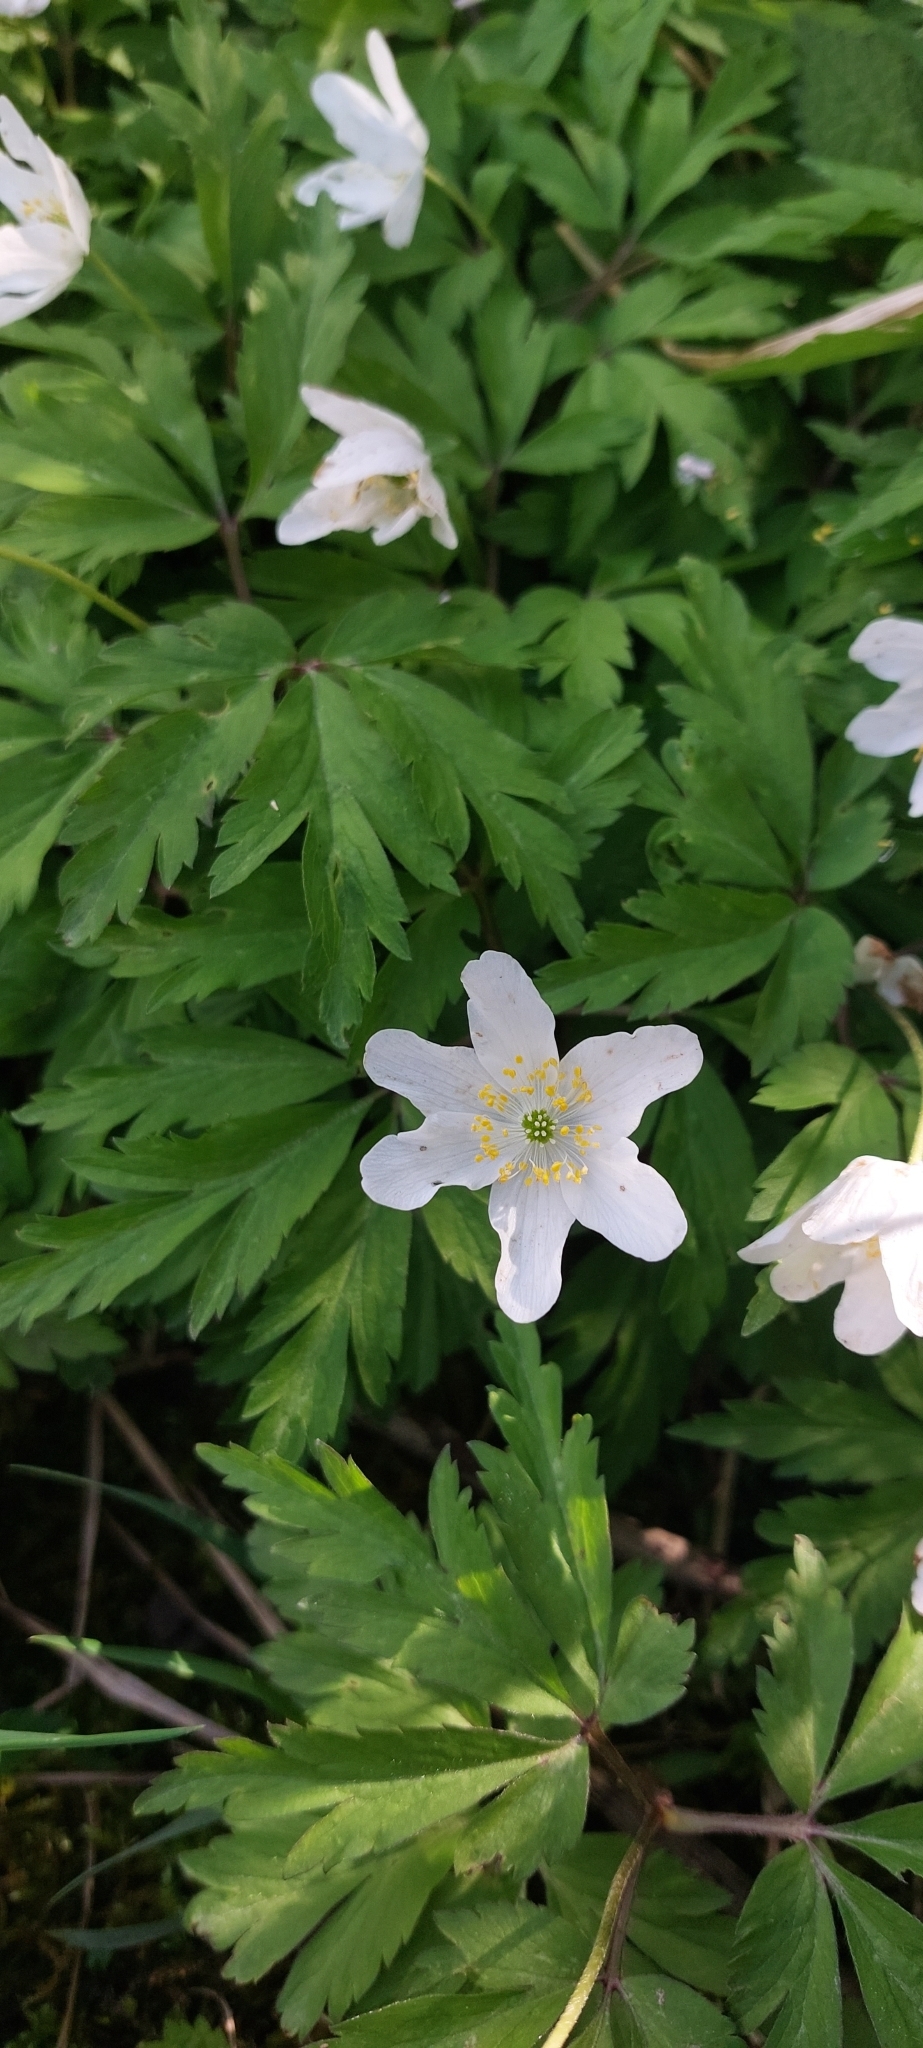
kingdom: Plantae
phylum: Tracheophyta
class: Magnoliopsida
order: Ranunculales
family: Ranunculaceae
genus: Anemone
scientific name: Anemone nemorosa
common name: Wood anemone
